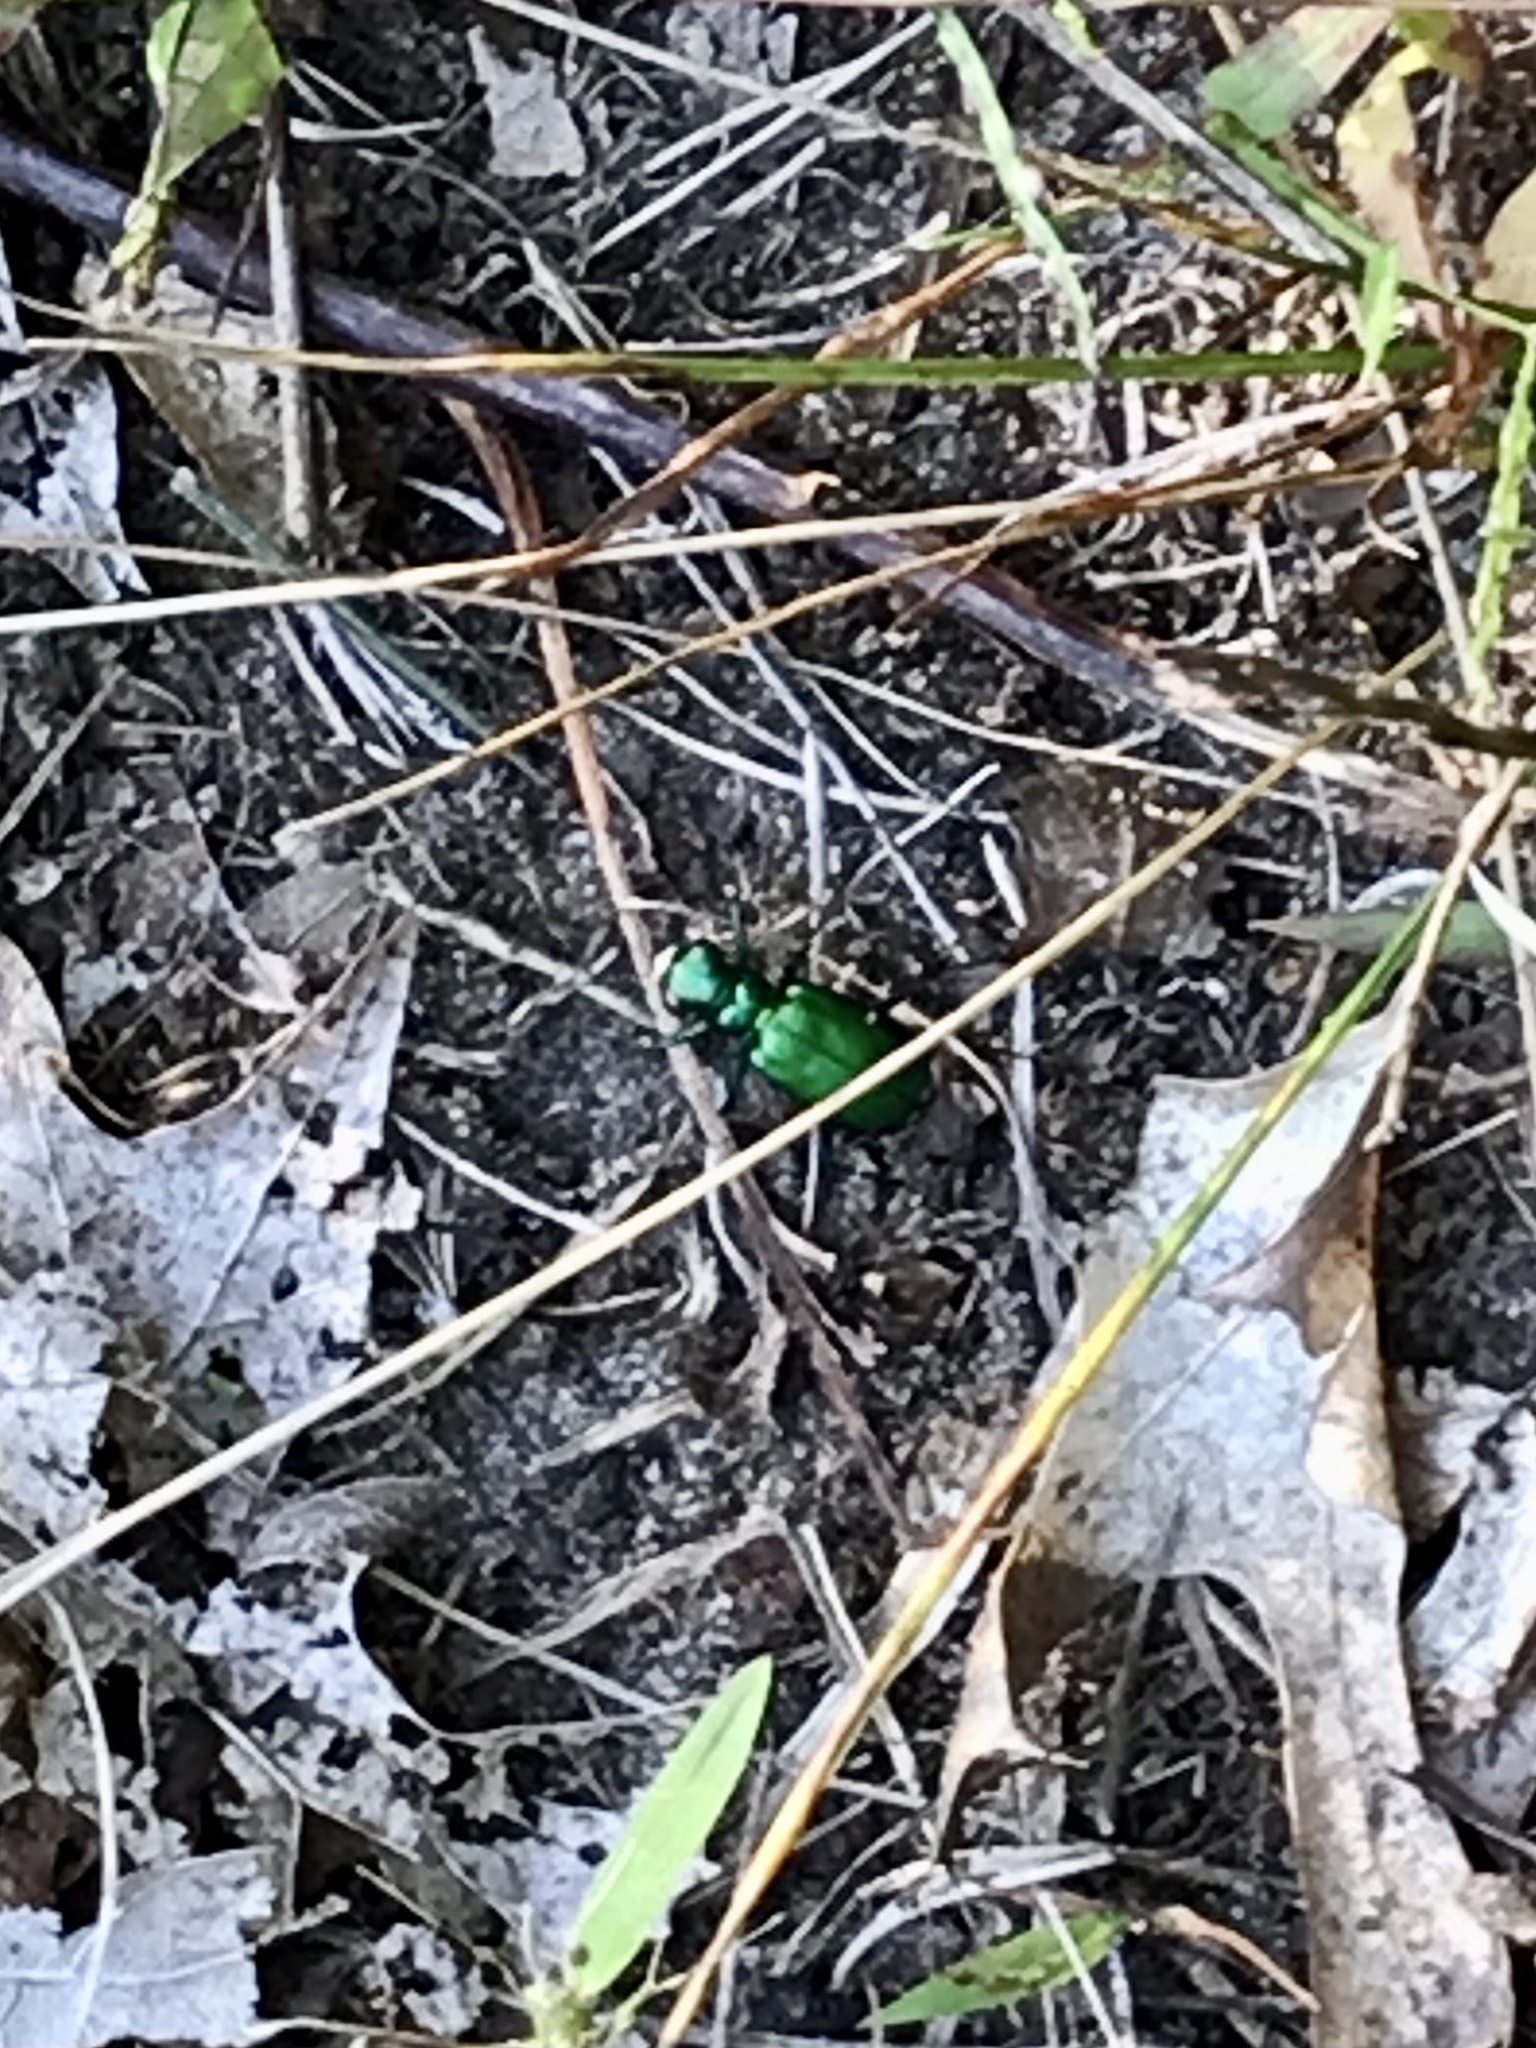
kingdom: Animalia
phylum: Arthropoda
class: Insecta
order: Coleoptera
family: Carabidae
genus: Cicindela
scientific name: Cicindela sexguttata
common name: Six-spotted tiger beetle
